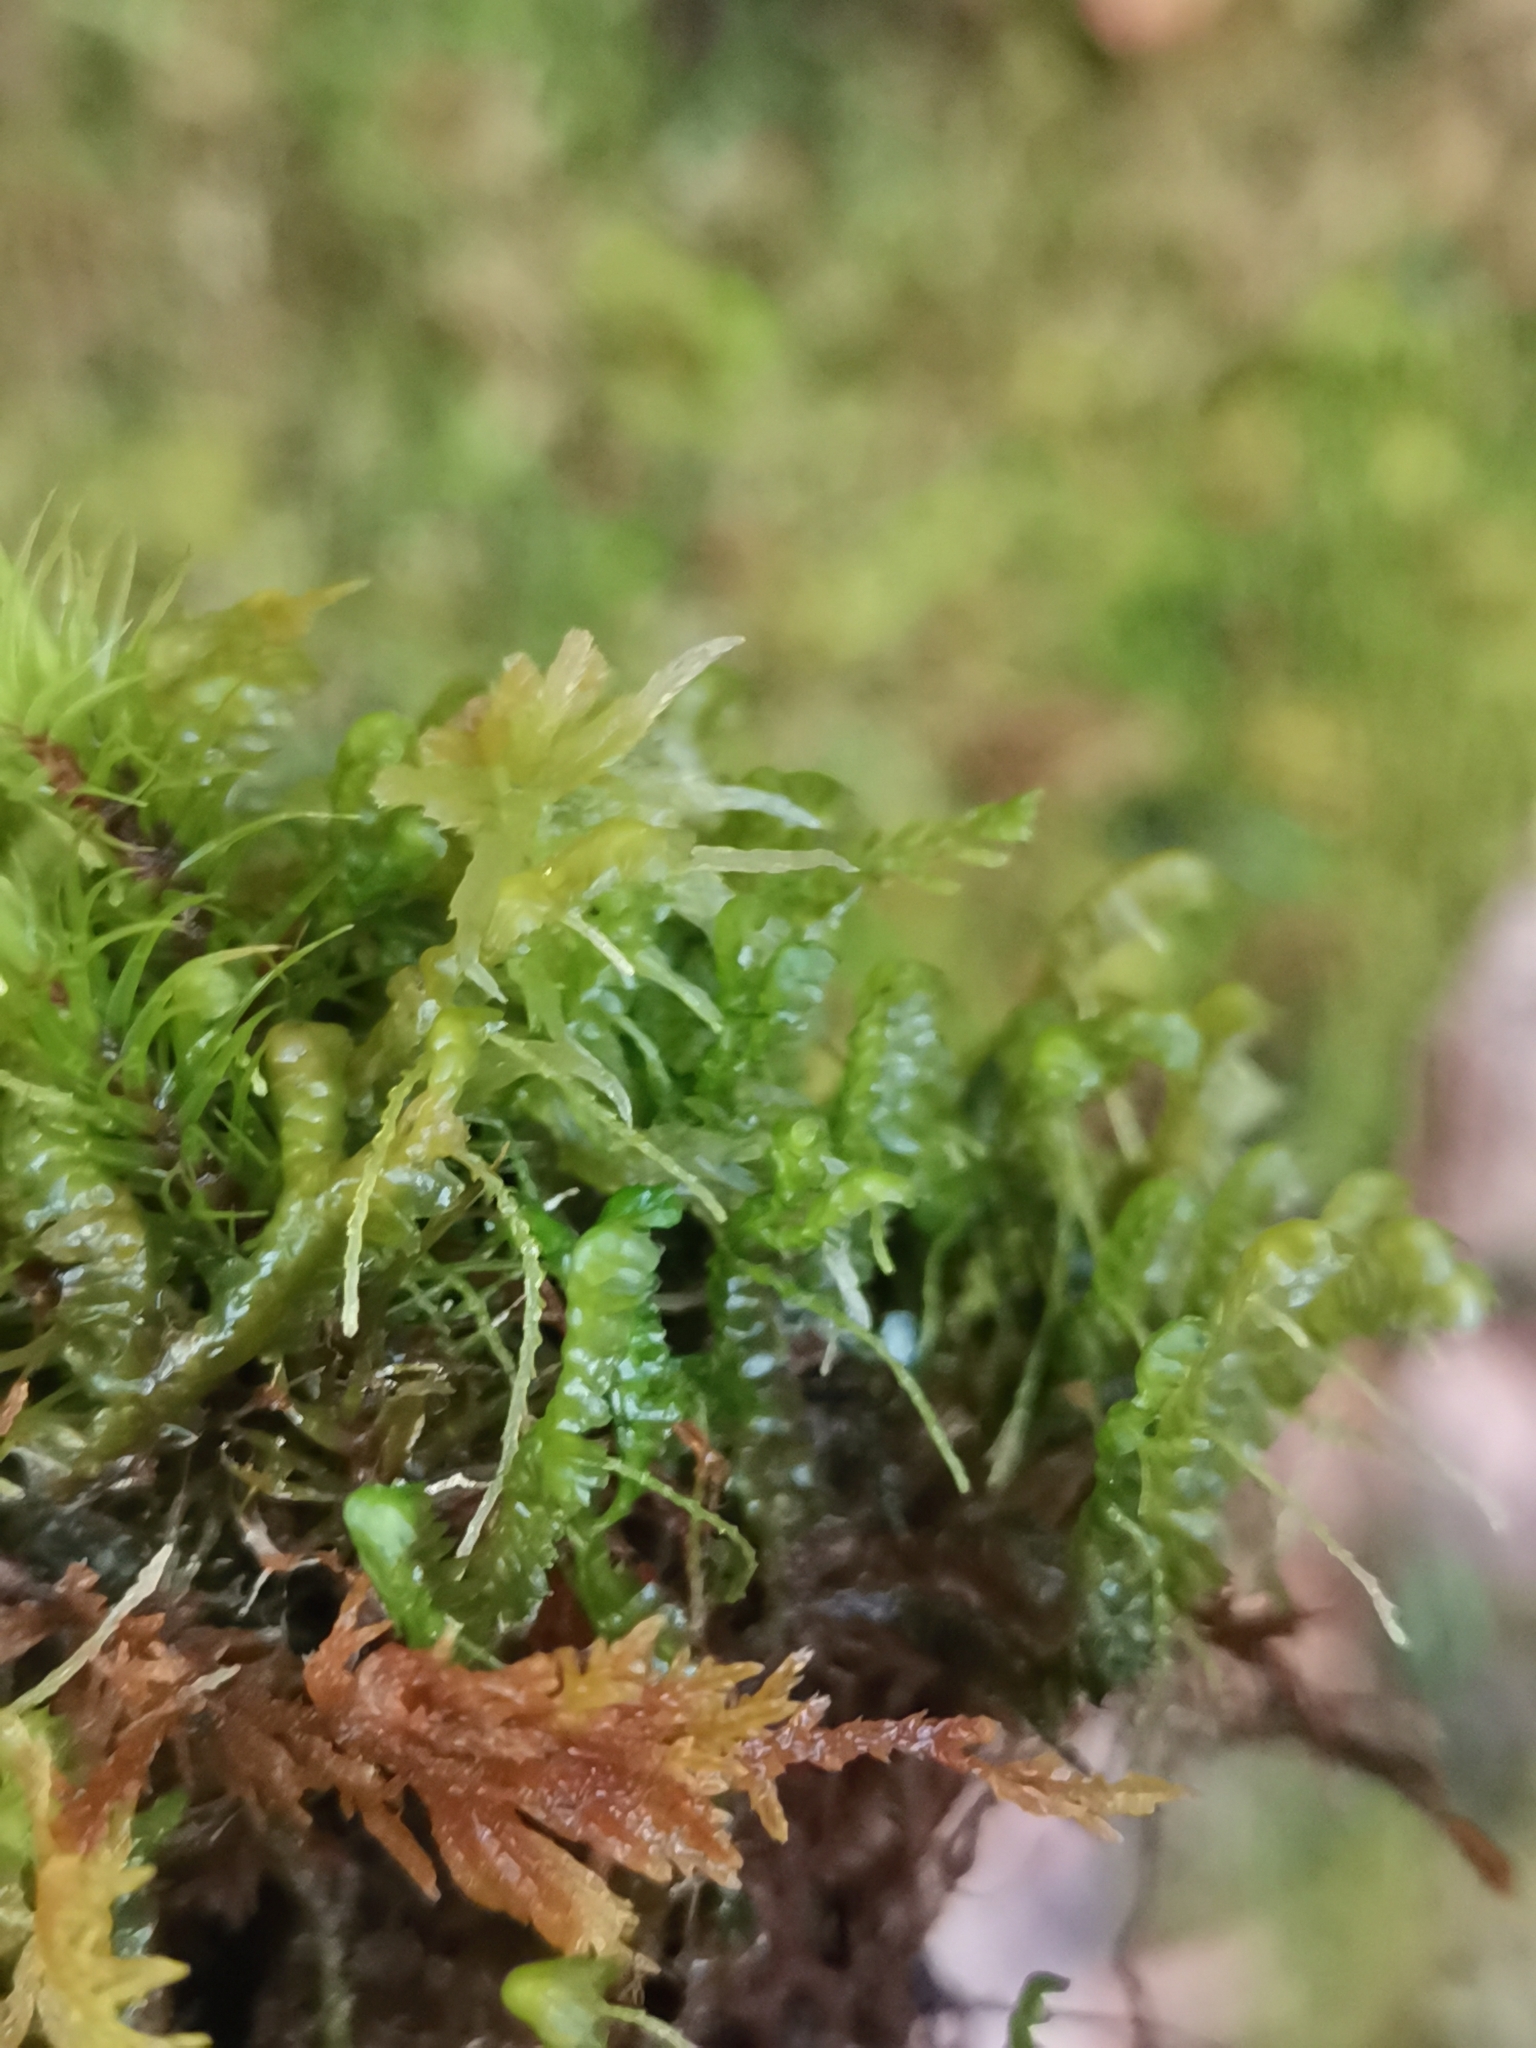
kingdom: Plantae
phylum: Marchantiophyta
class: Jungermanniopsida
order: Jungermanniales
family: Lepidoziaceae
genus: Bazzania
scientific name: Bazzania trilobata
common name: Three-lobed whipwort
